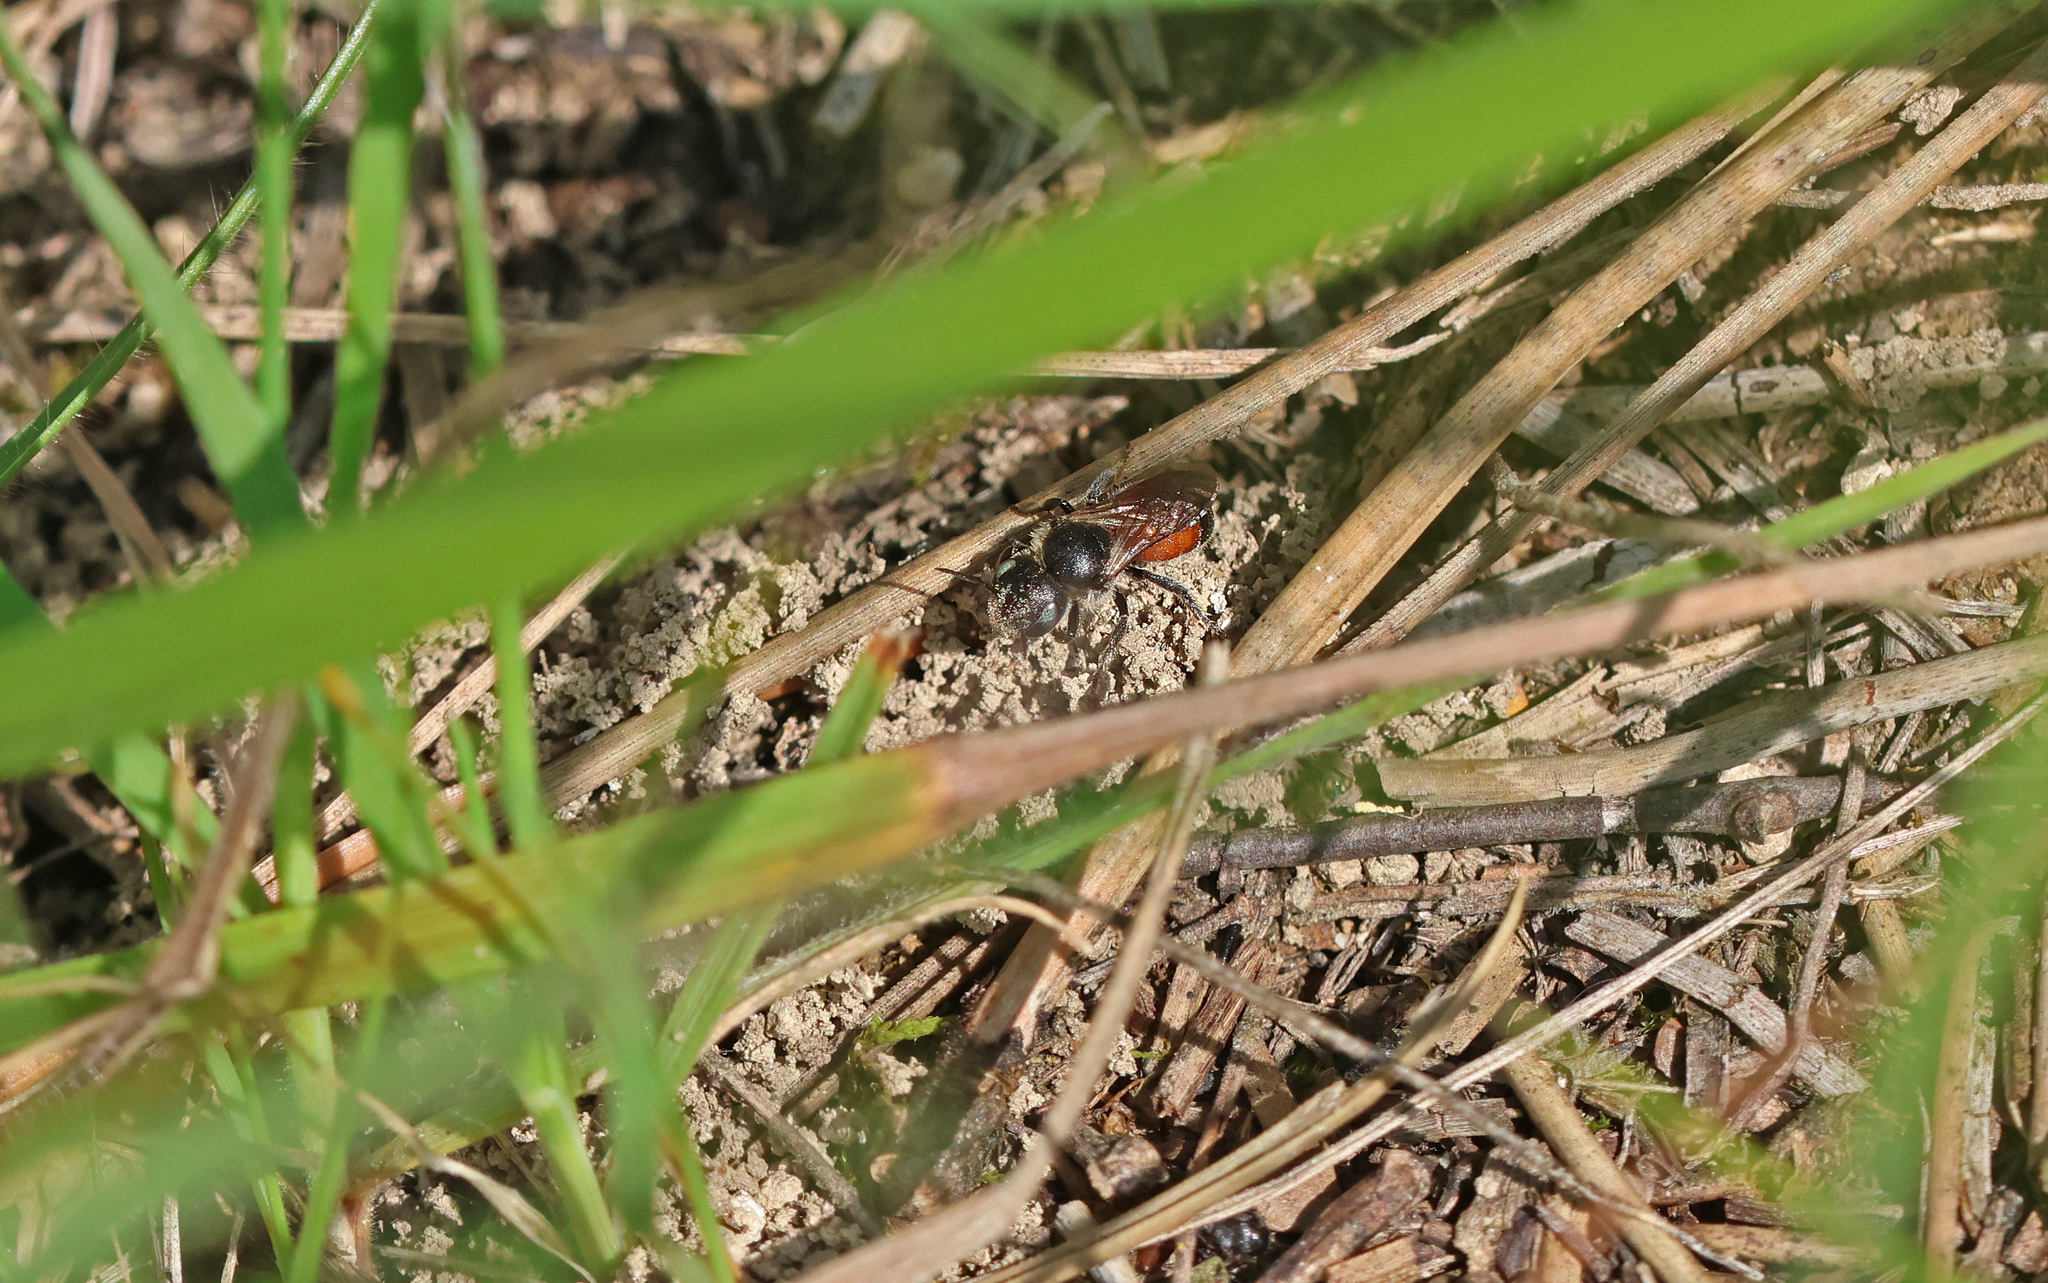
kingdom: Animalia
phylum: Arthropoda
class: Insecta
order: Hymenoptera
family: Megachilidae
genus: Osmia
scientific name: Osmia andrenoides
